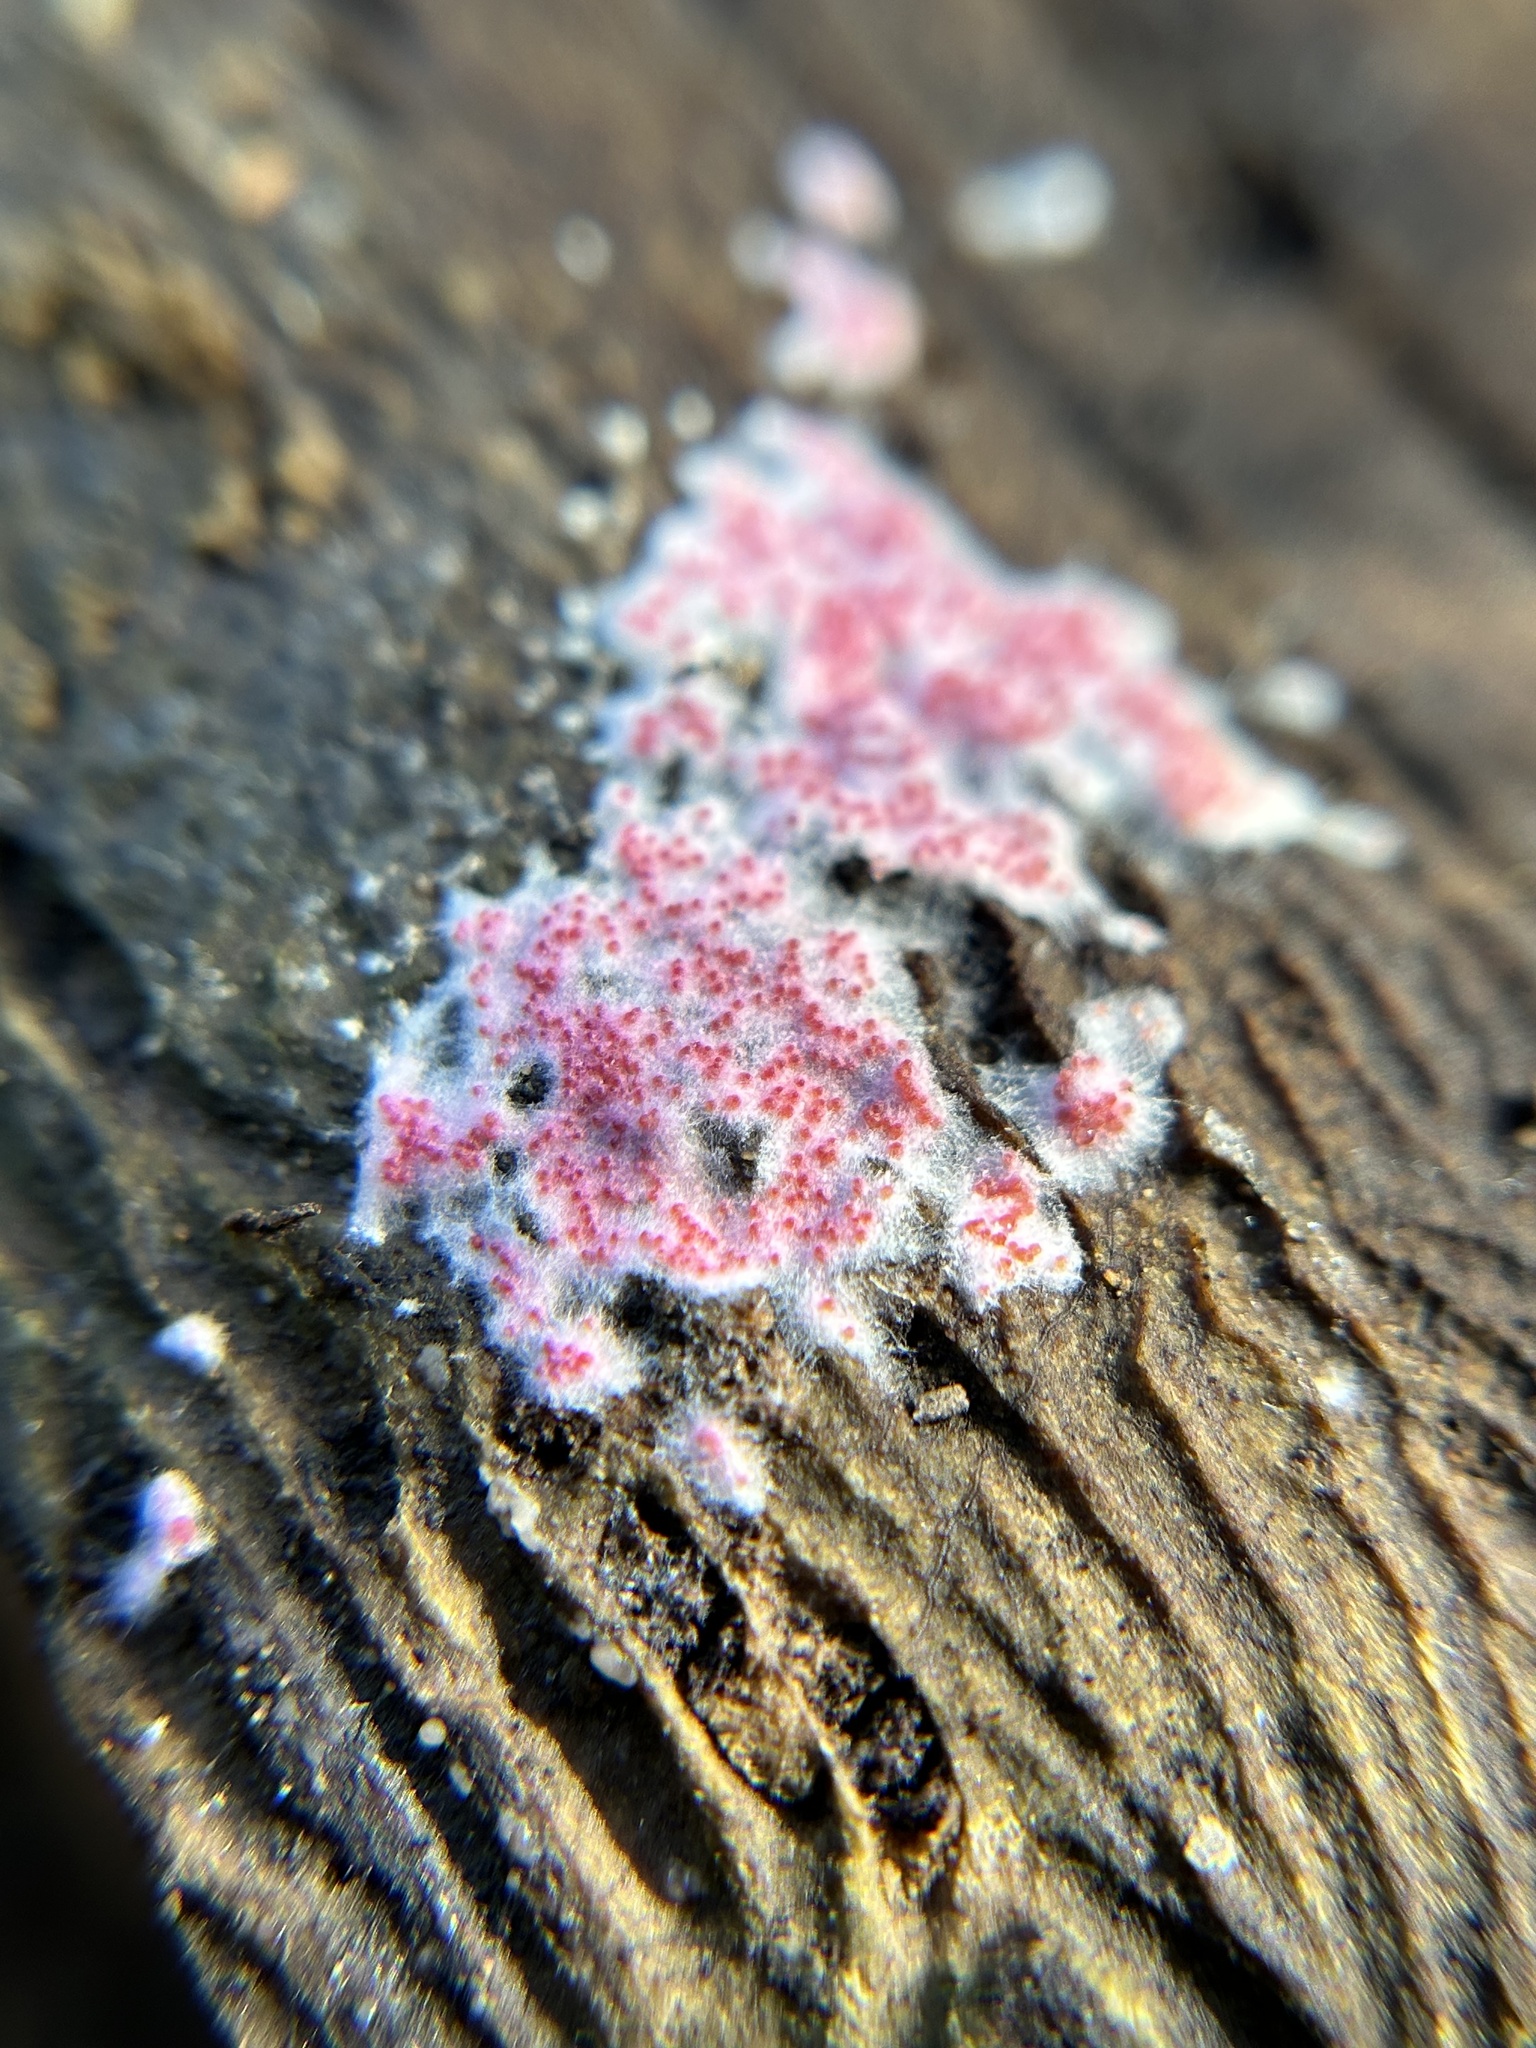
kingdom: Fungi
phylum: Ascomycota
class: Sordariomycetes
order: Hypocreales
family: Hypocreaceae
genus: Hypomyces
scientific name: Hypomyces rosellus
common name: Pink polypore mould
